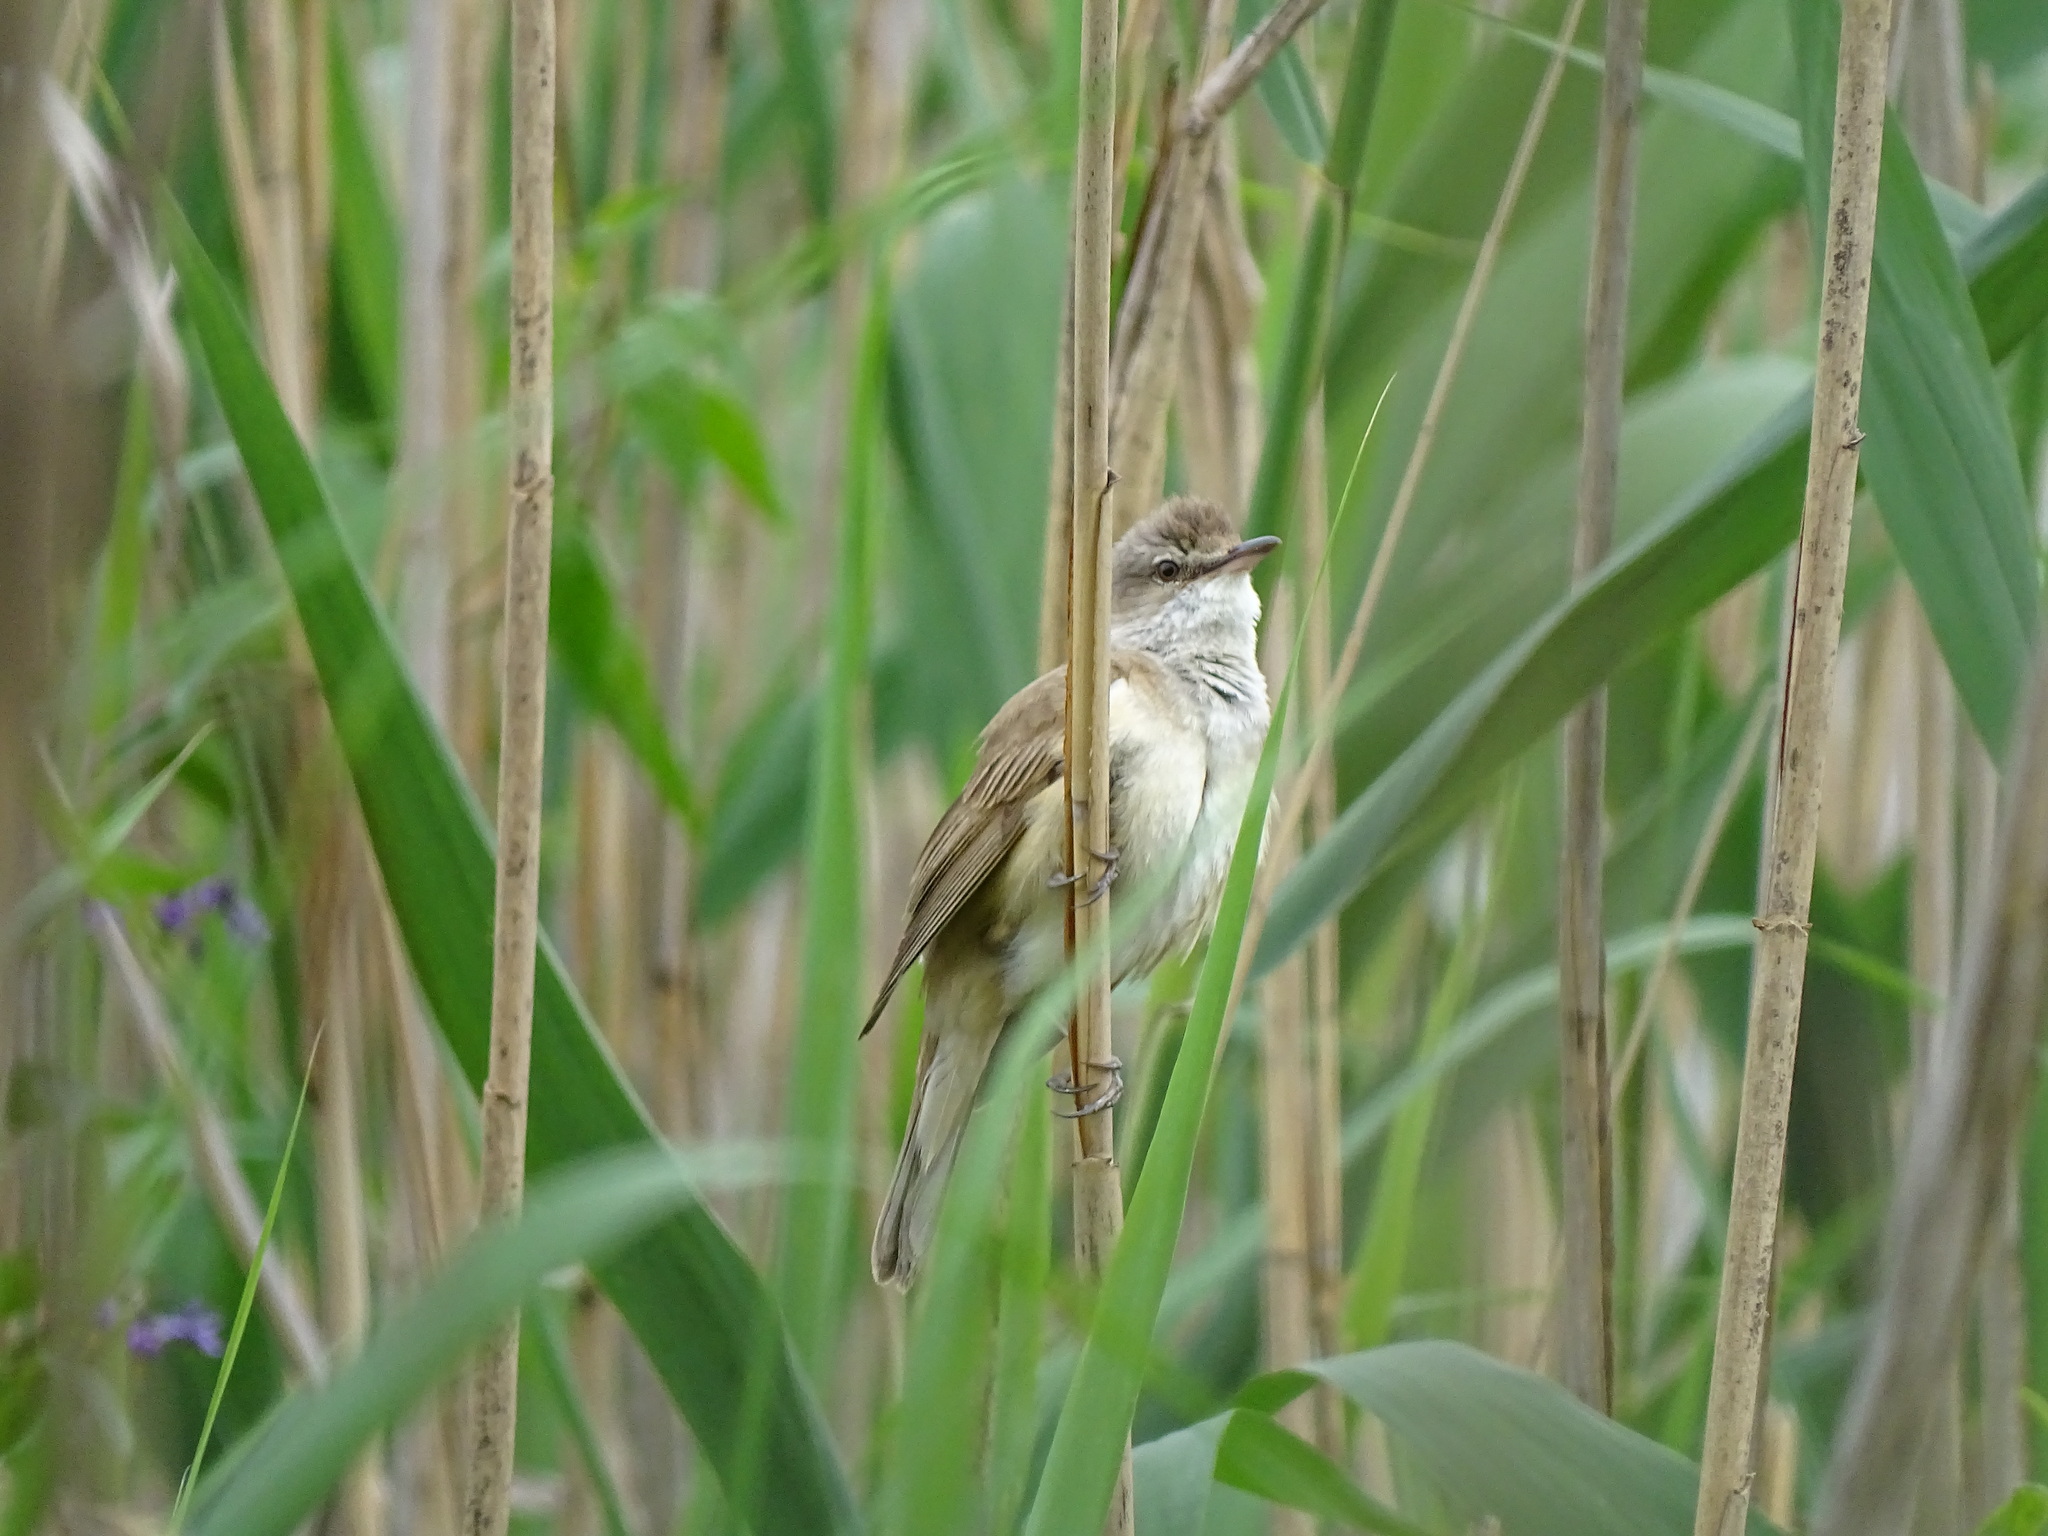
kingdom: Animalia
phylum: Chordata
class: Aves
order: Passeriformes
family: Acrocephalidae
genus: Acrocephalus
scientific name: Acrocephalus arundinaceus
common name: Great reed warbler
